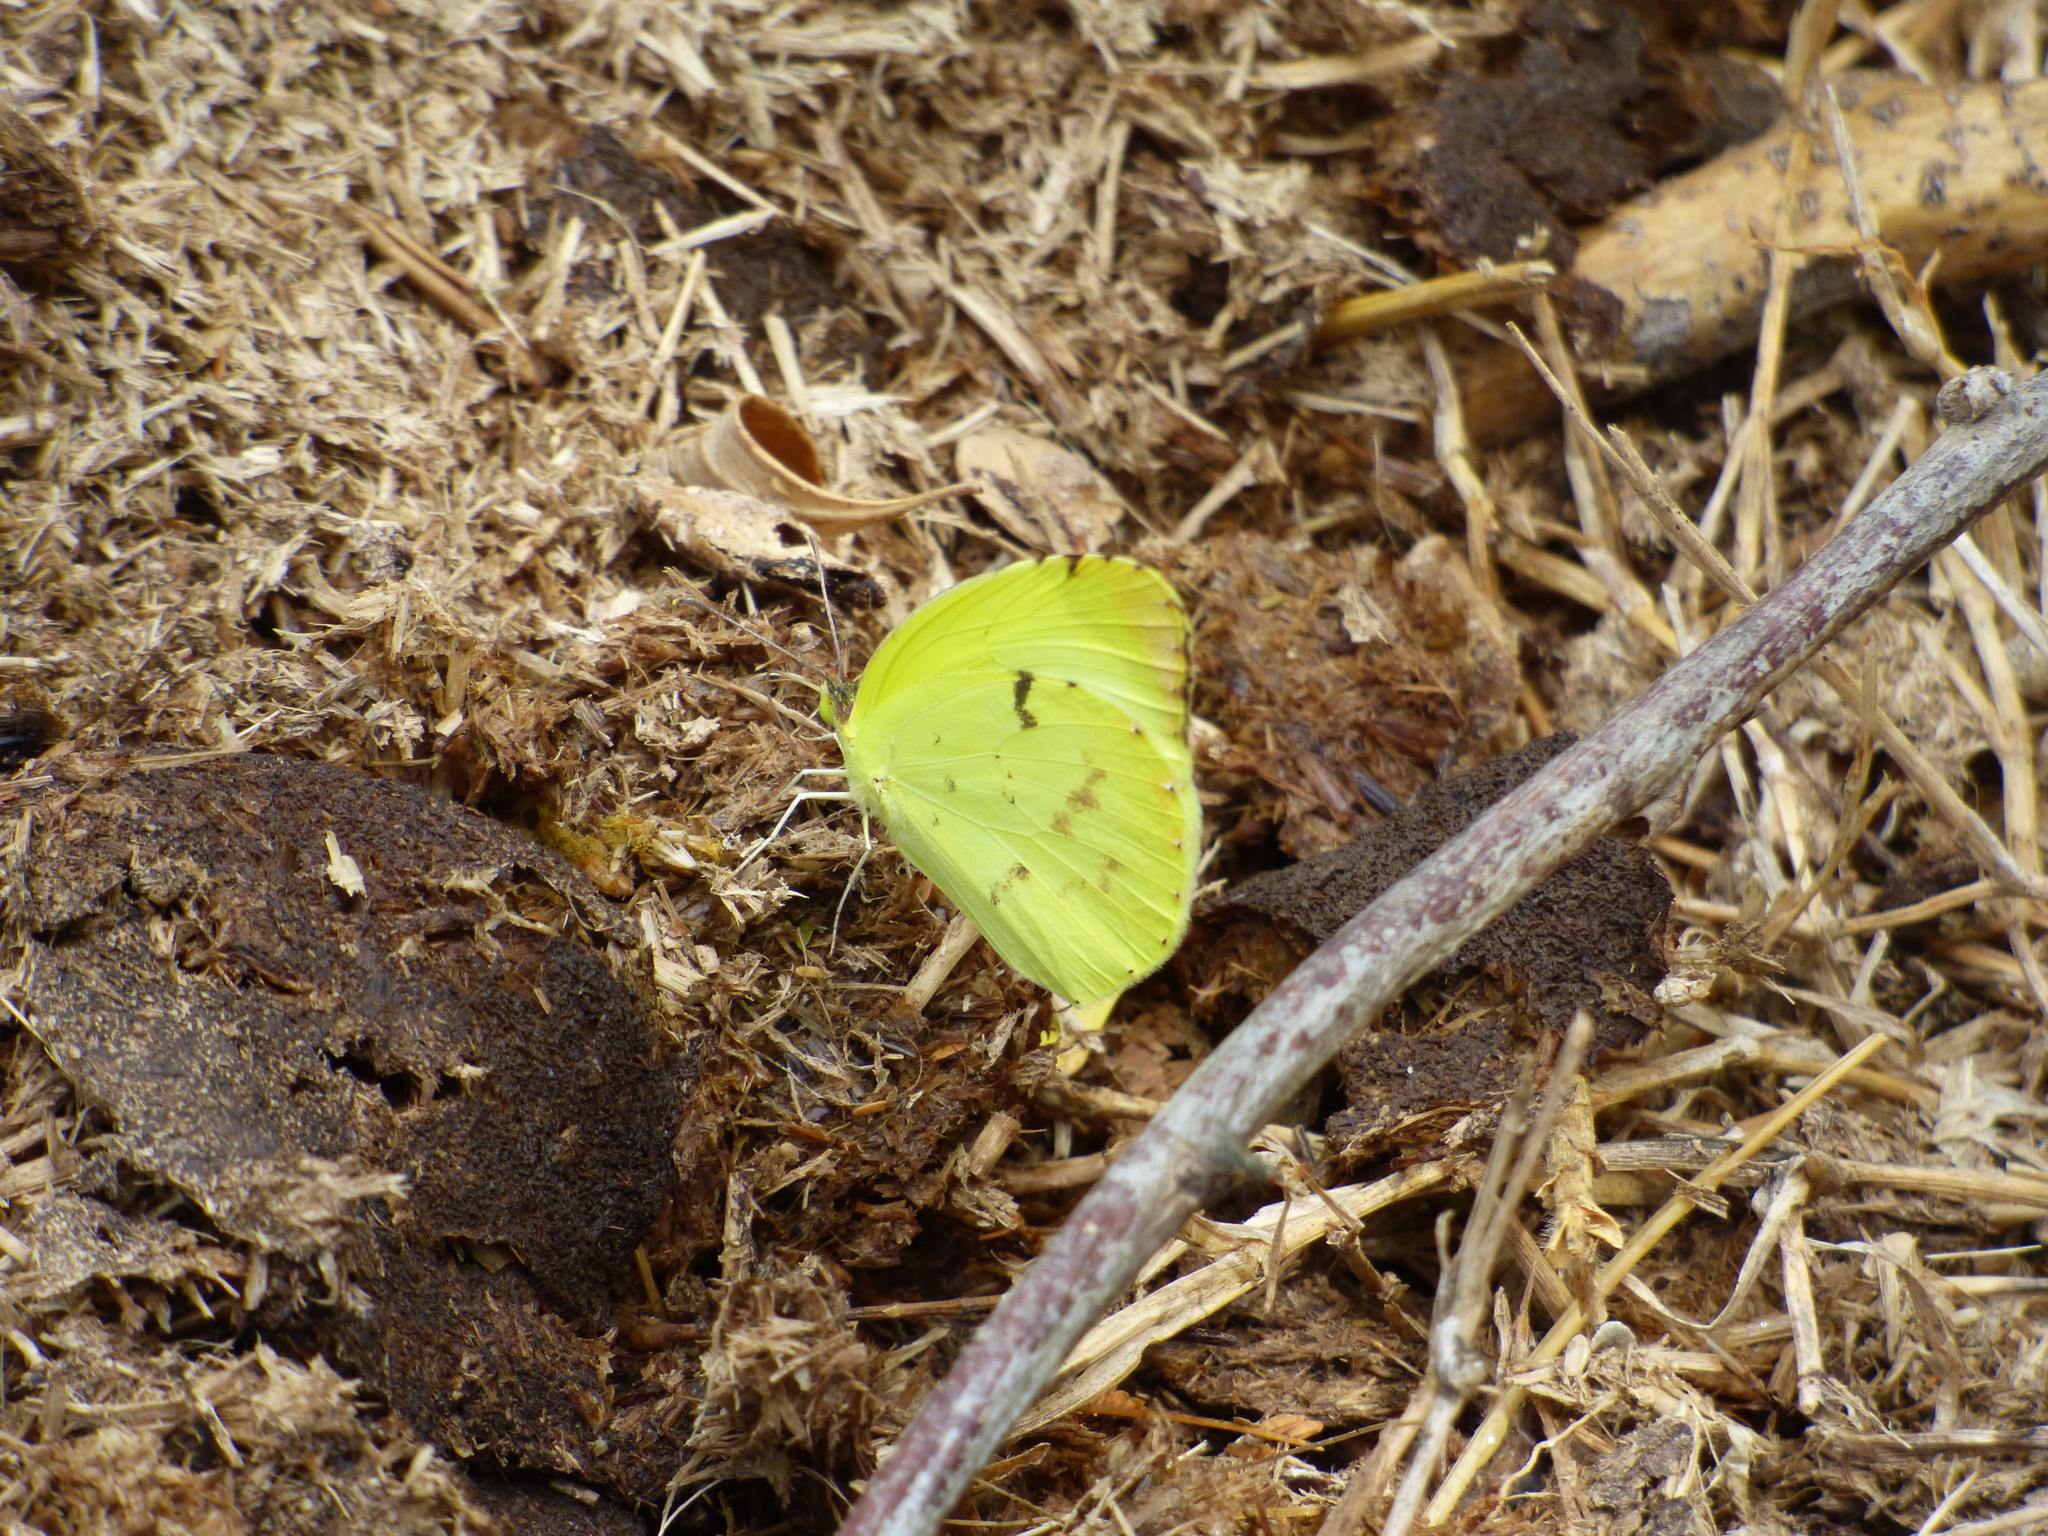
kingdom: Animalia
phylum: Arthropoda
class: Insecta
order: Lepidoptera
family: Pieridae
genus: Teriocolias
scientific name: Teriocolias
